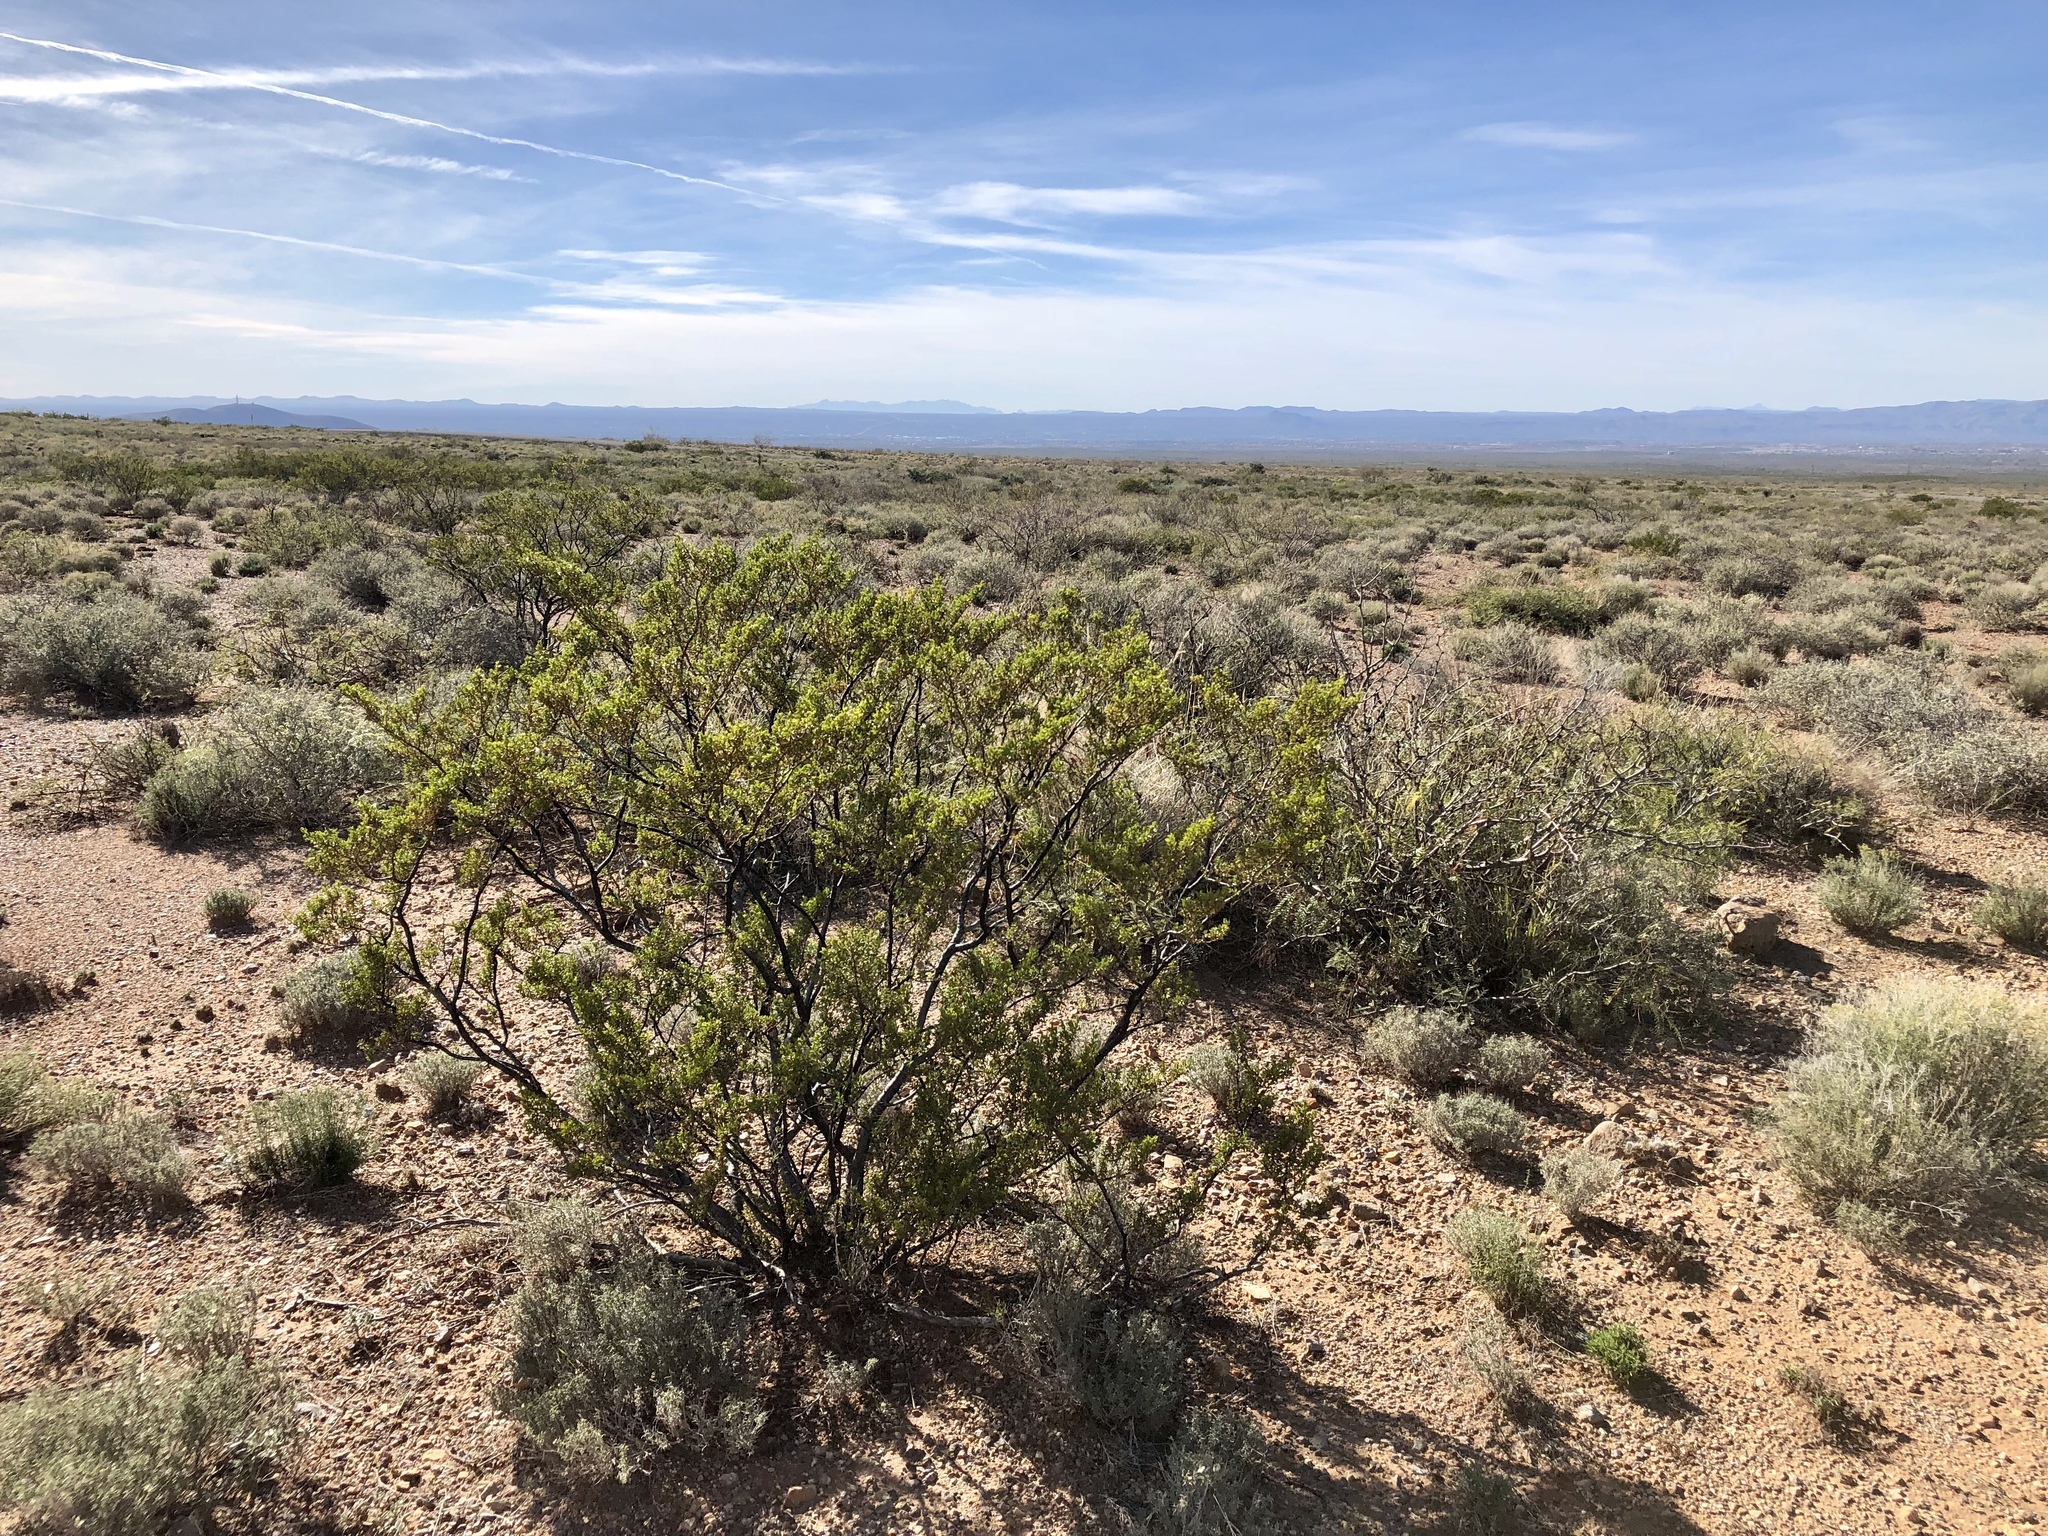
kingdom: Plantae
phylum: Tracheophyta
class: Magnoliopsida
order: Zygophyllales
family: Zygophyllaceae
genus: Larrea
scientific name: Larrea tridentata
